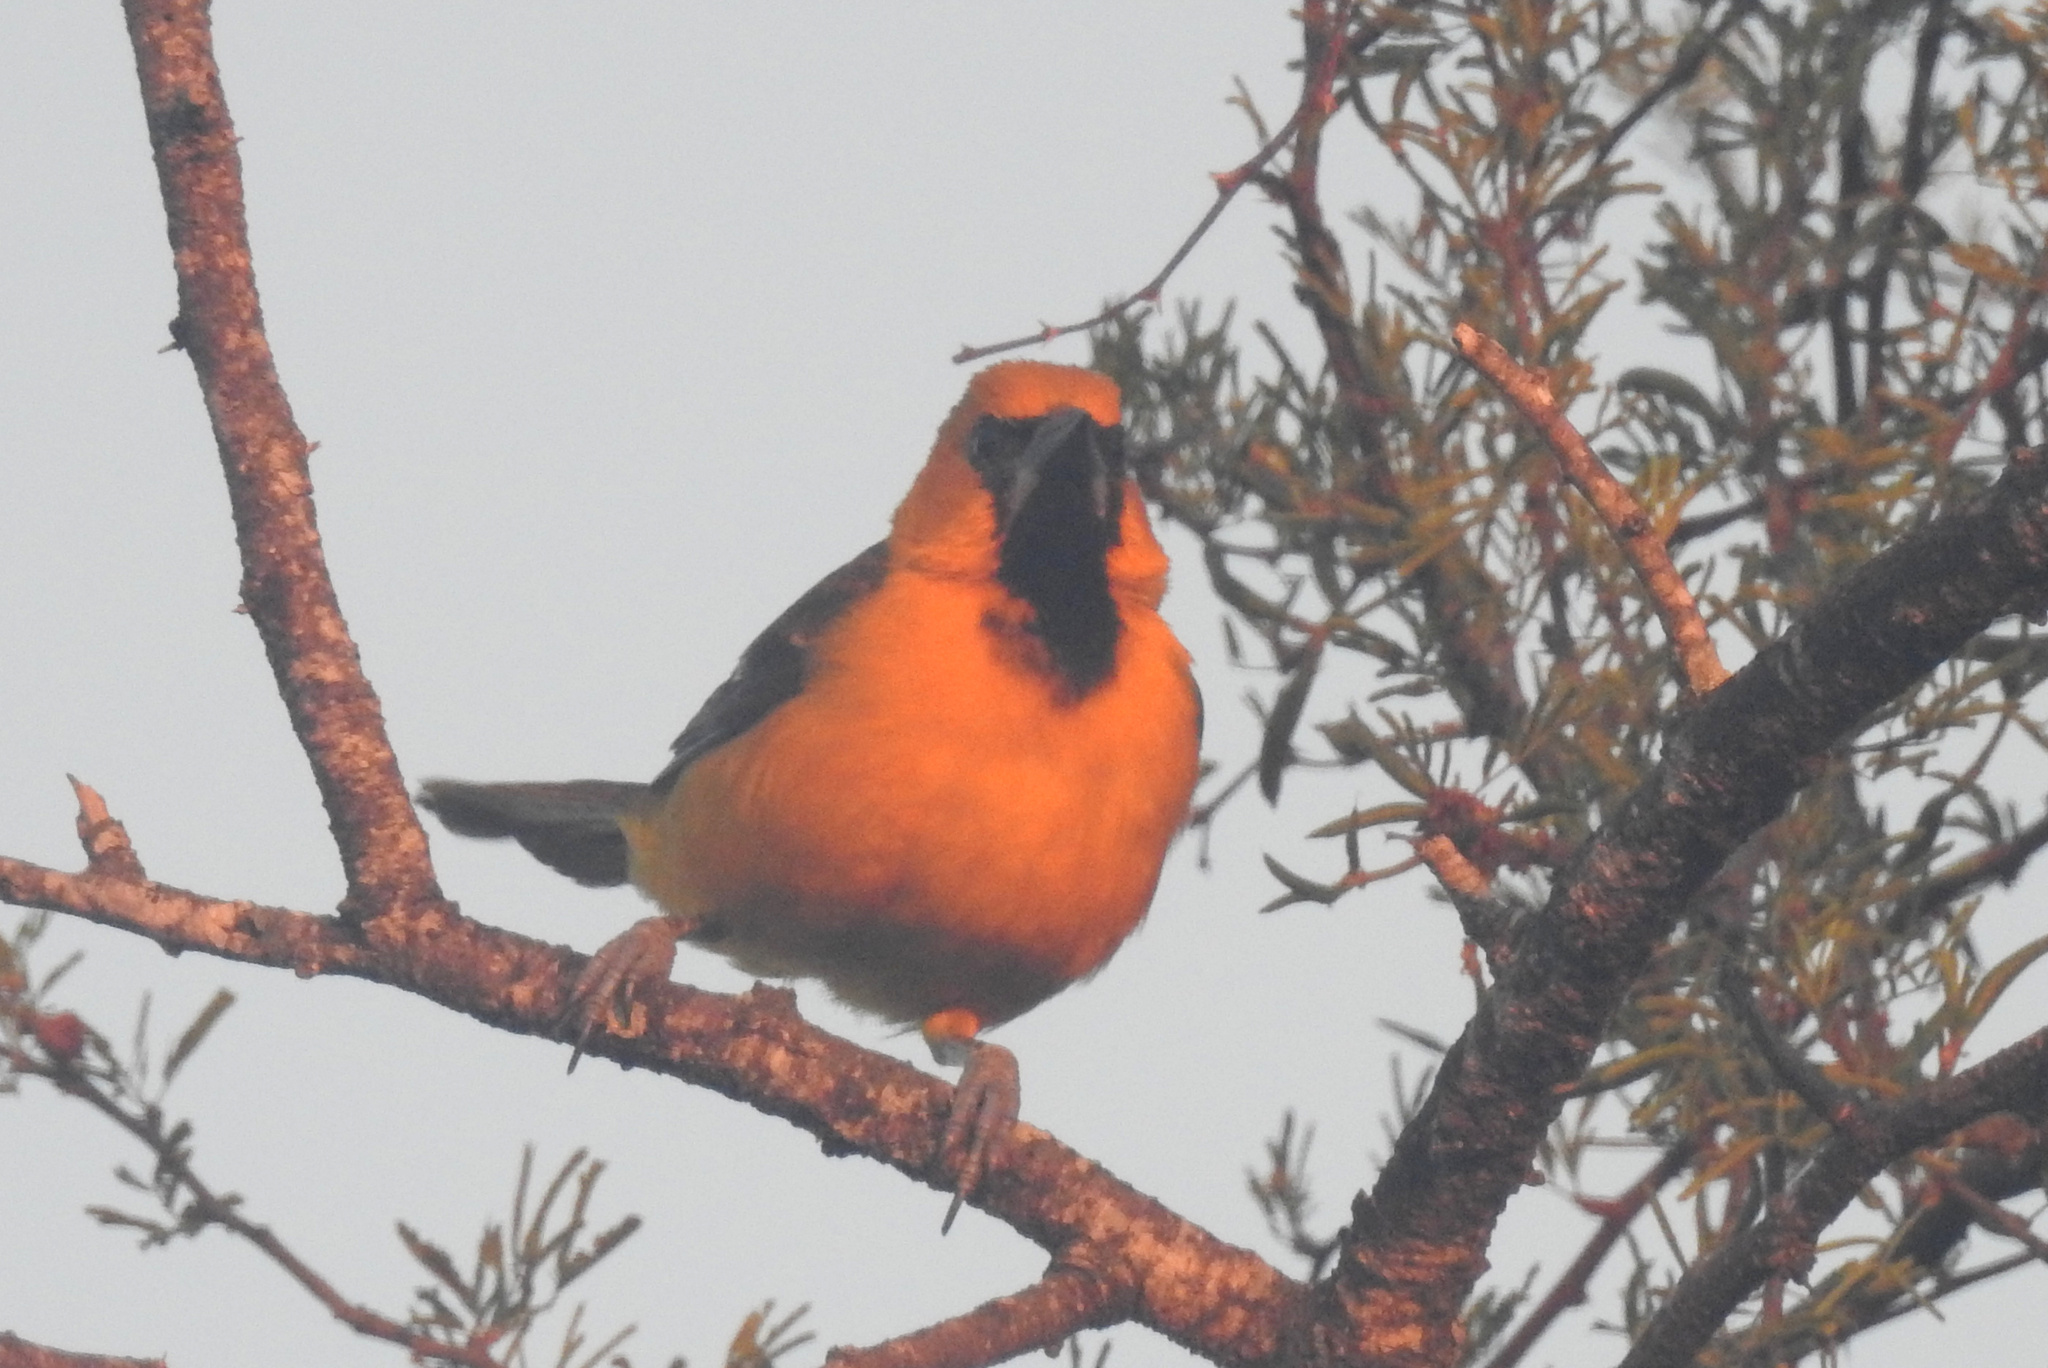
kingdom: Animalia
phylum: Chordata
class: Aves
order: Passeriformes
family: Icteridae
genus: Icterus
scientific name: Icterus gularis
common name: Altamira oriole
